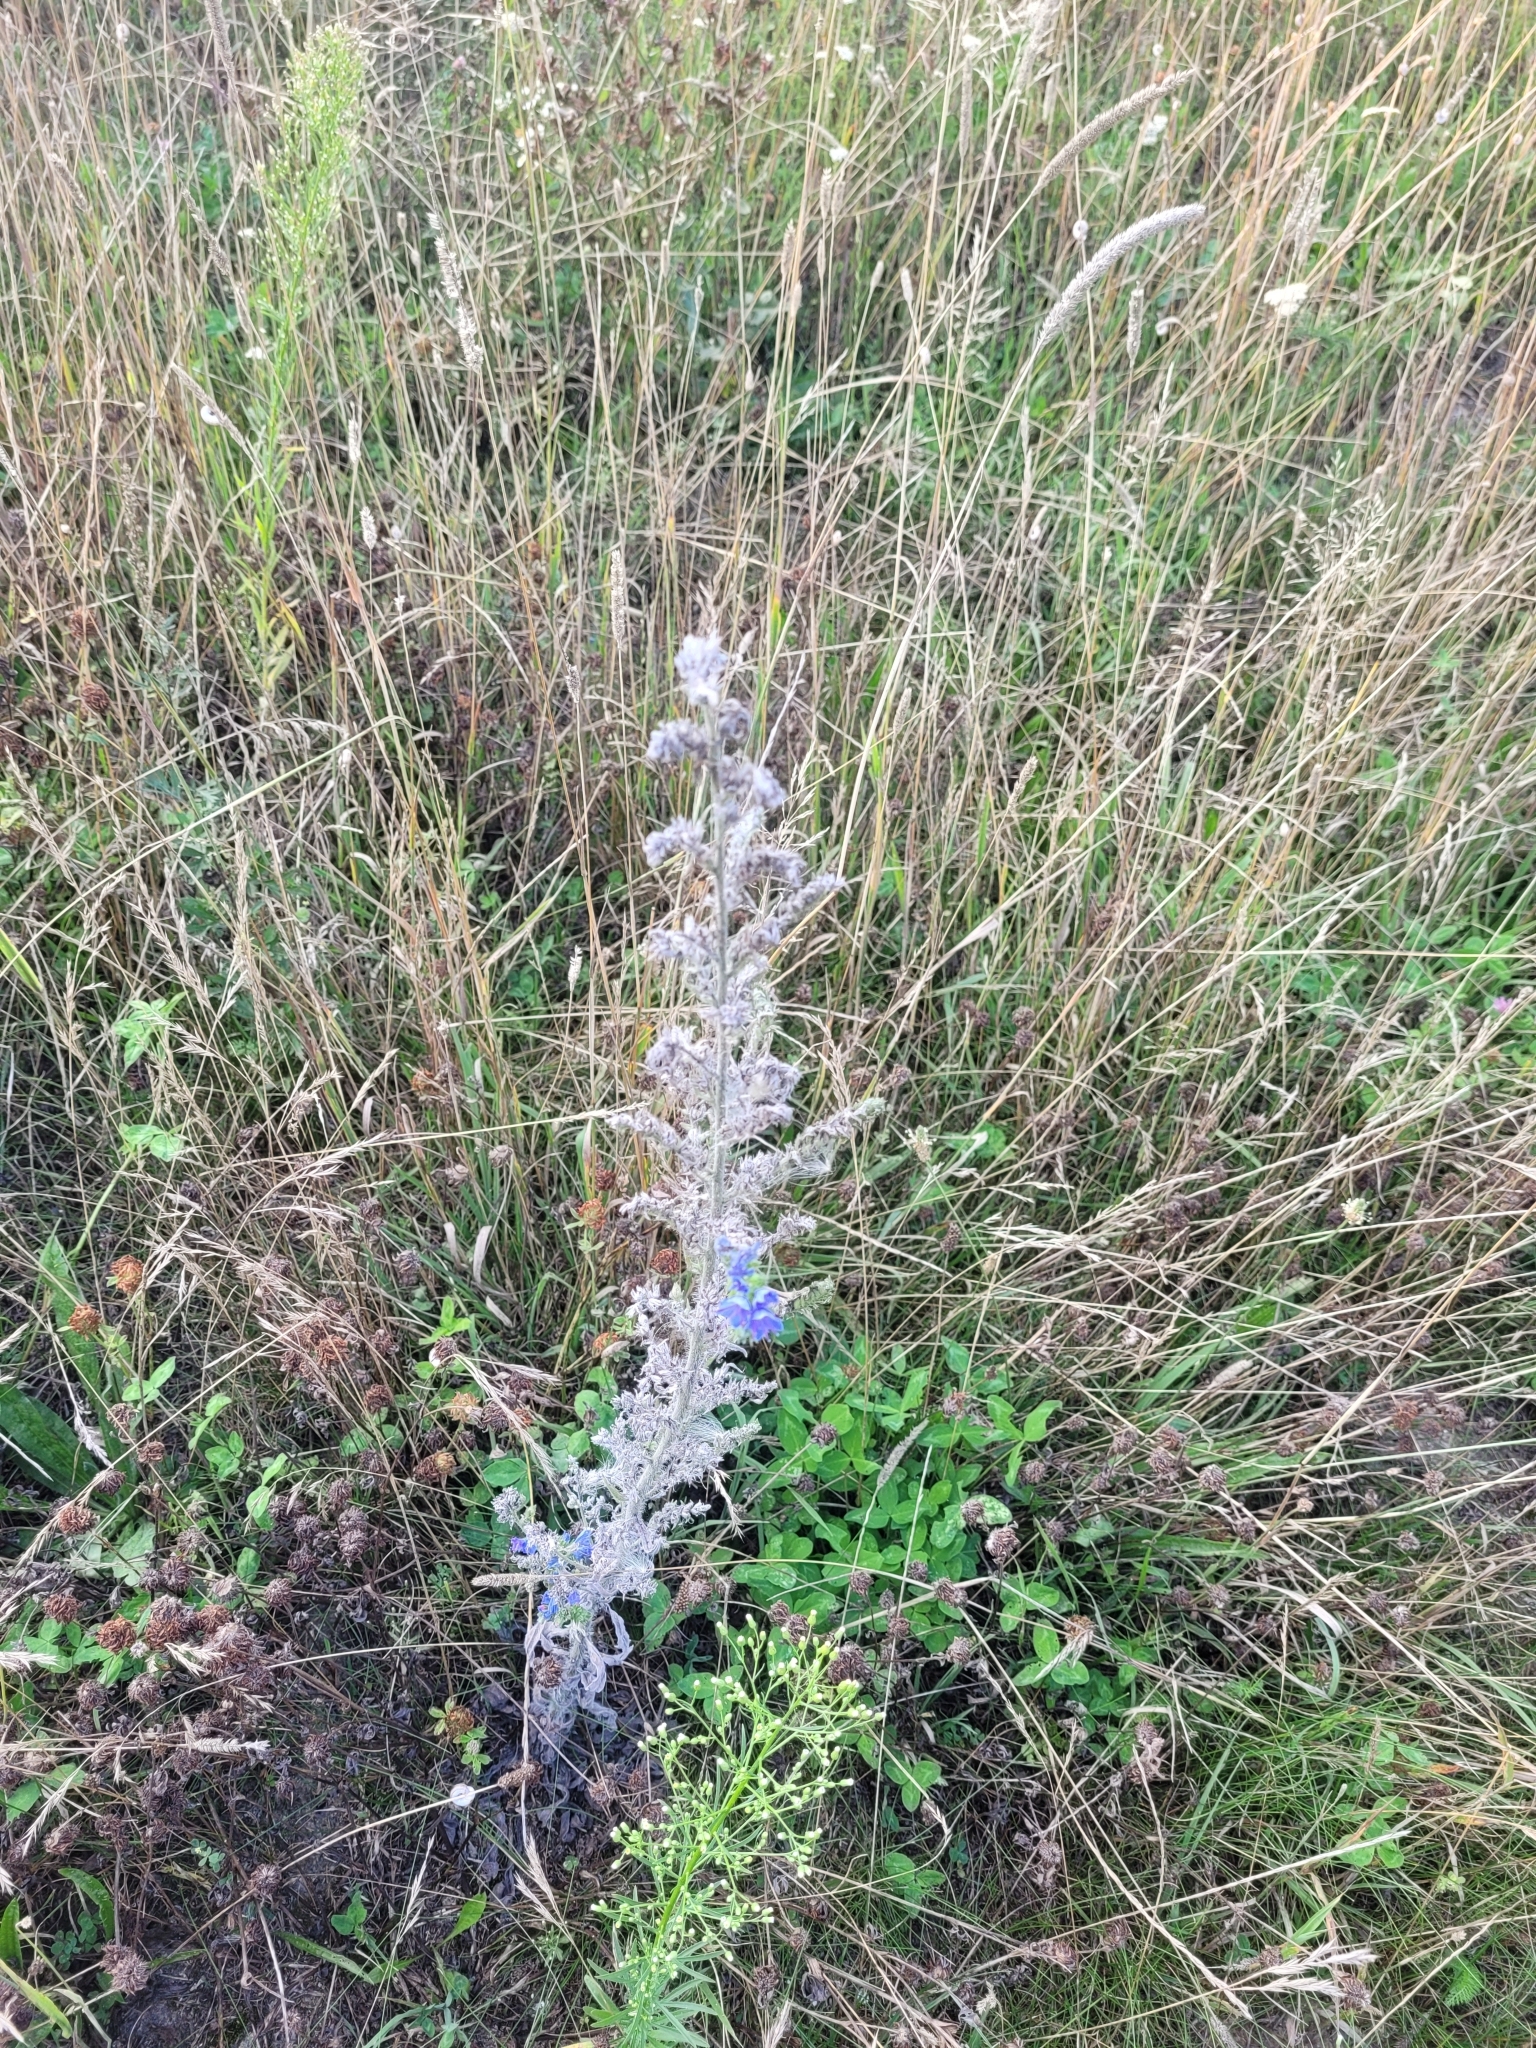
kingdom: Plantae
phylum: Tracheophyta
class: Magnoliopsida
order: Boraginales
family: Boraginaceae
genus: Echium
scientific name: Echium vulgare
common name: Common viper's bugloss
